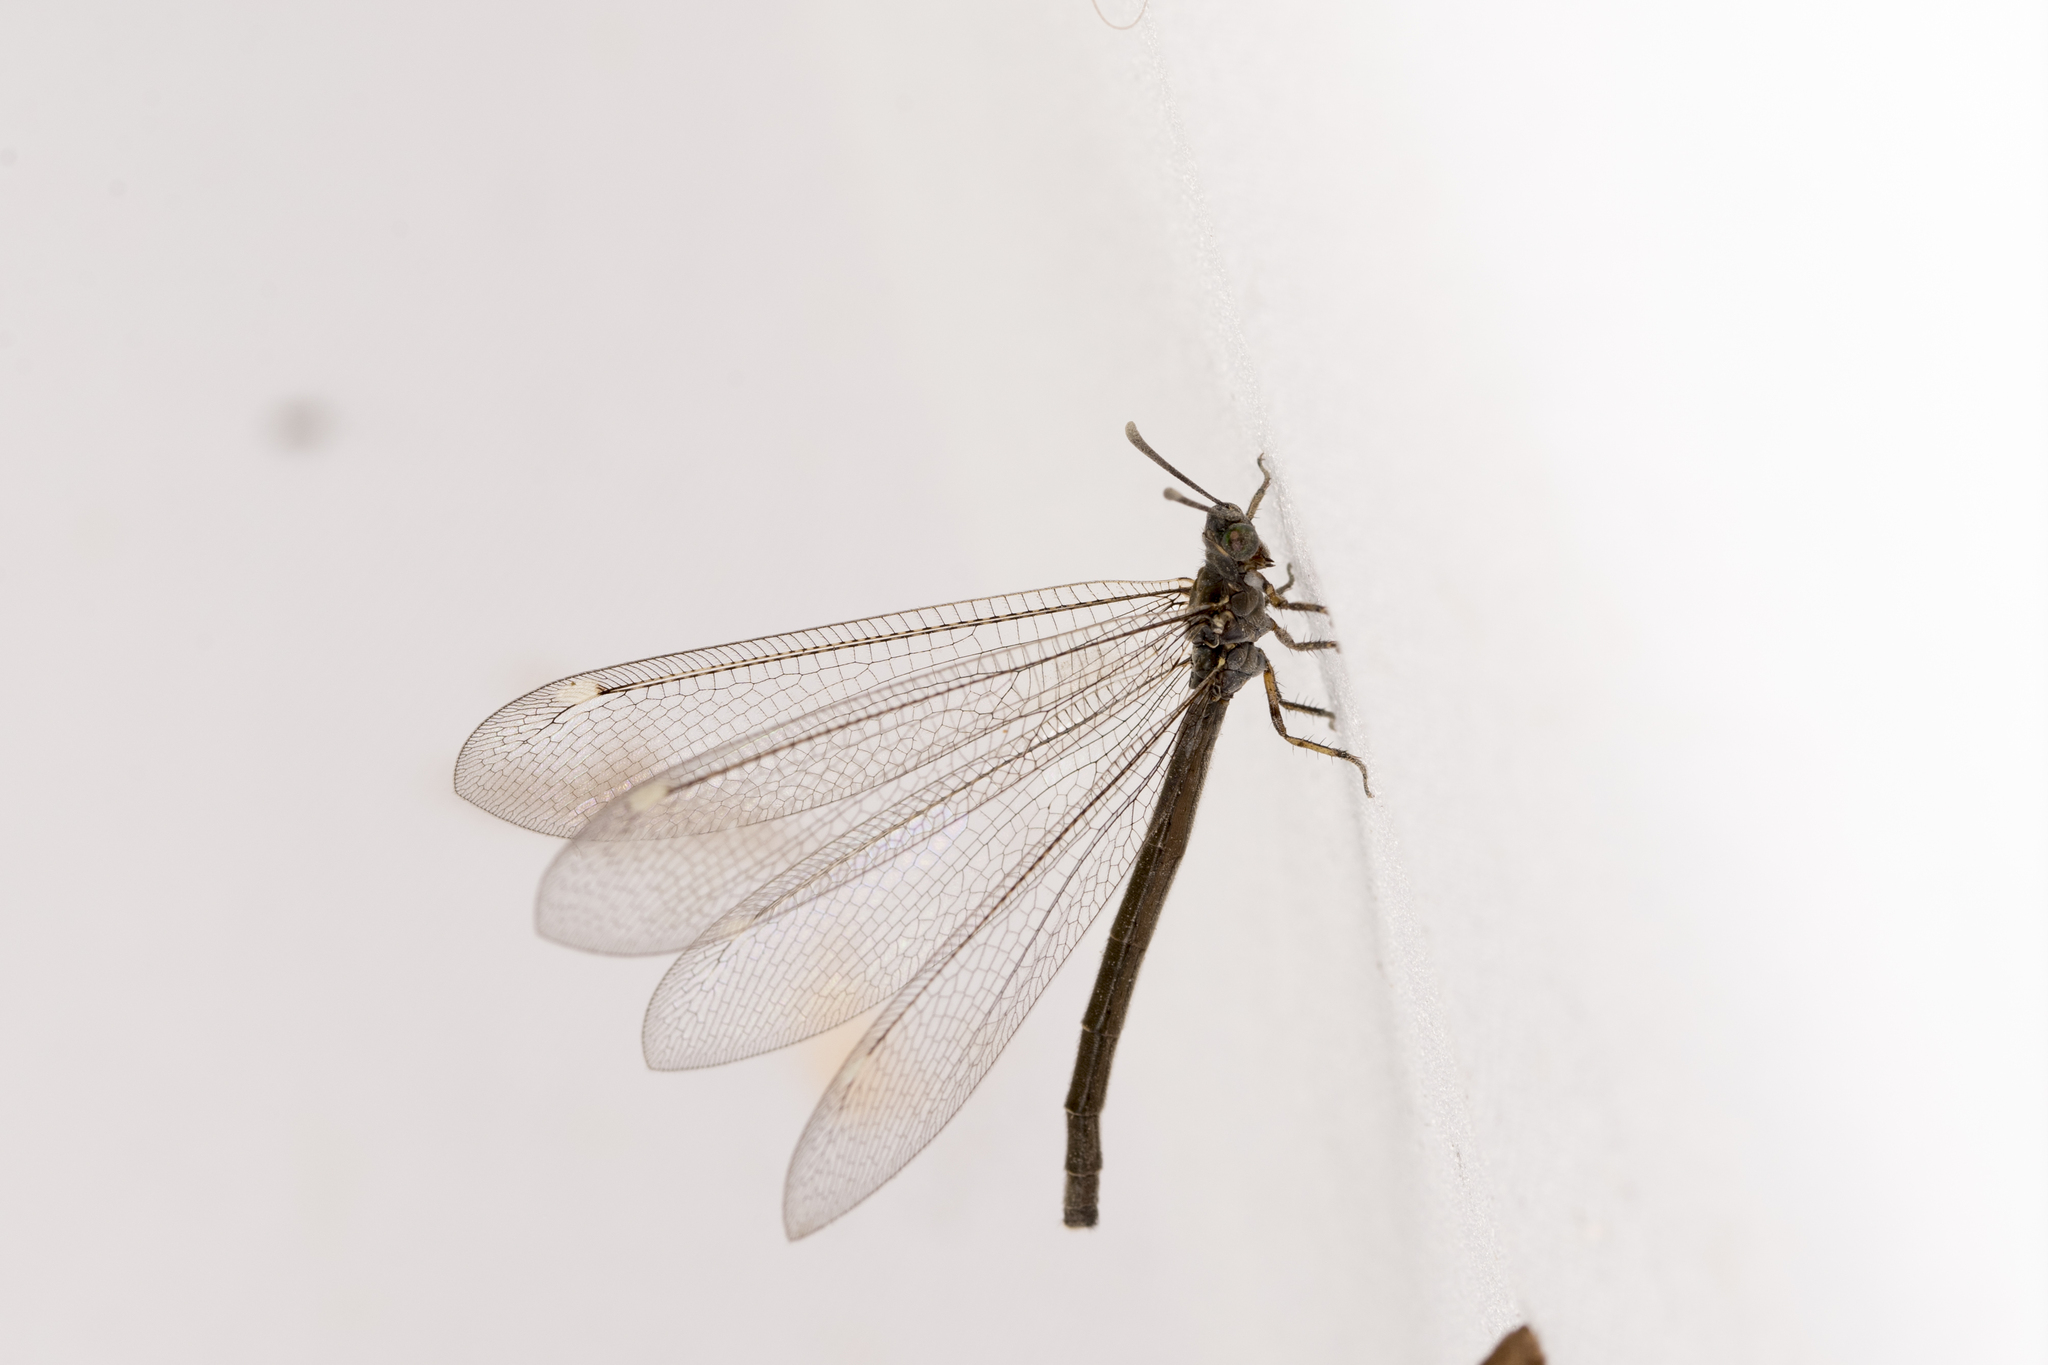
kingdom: Animalia
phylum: Arthropoda
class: Insecta
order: Neuroptera
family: Myrmeleontidae
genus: Myrmeleon
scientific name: Myrmeleon alticolus
